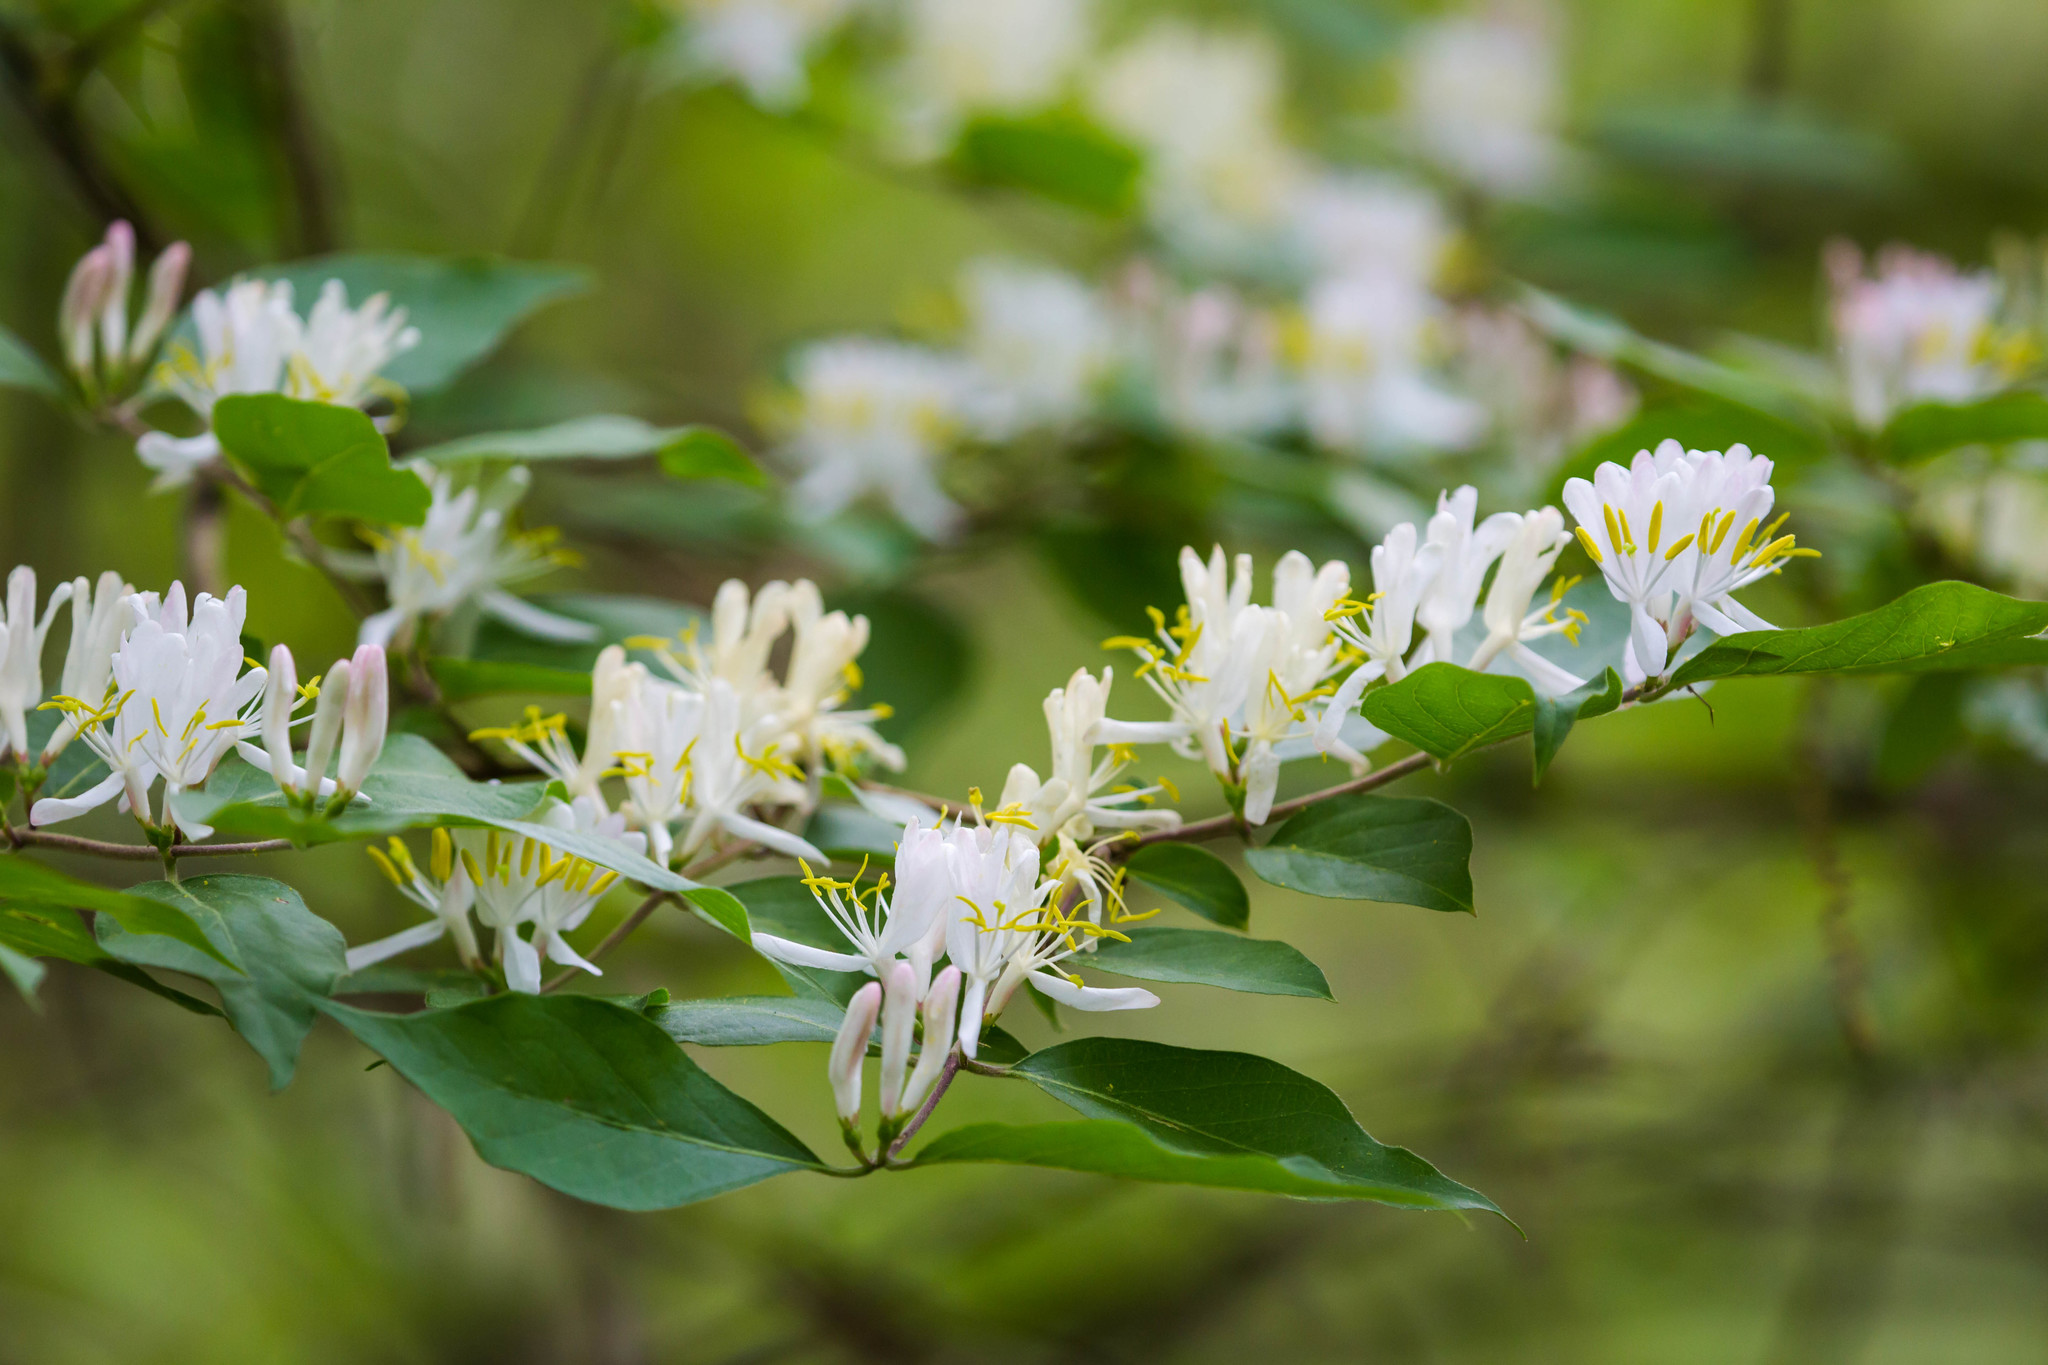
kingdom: Plantae
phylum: Tracheophyta
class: Magnoliopsida
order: Dipsacales
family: Caprifoliaceae
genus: Lonicera
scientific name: Lonicera maackii
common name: Amur honeysuckle
